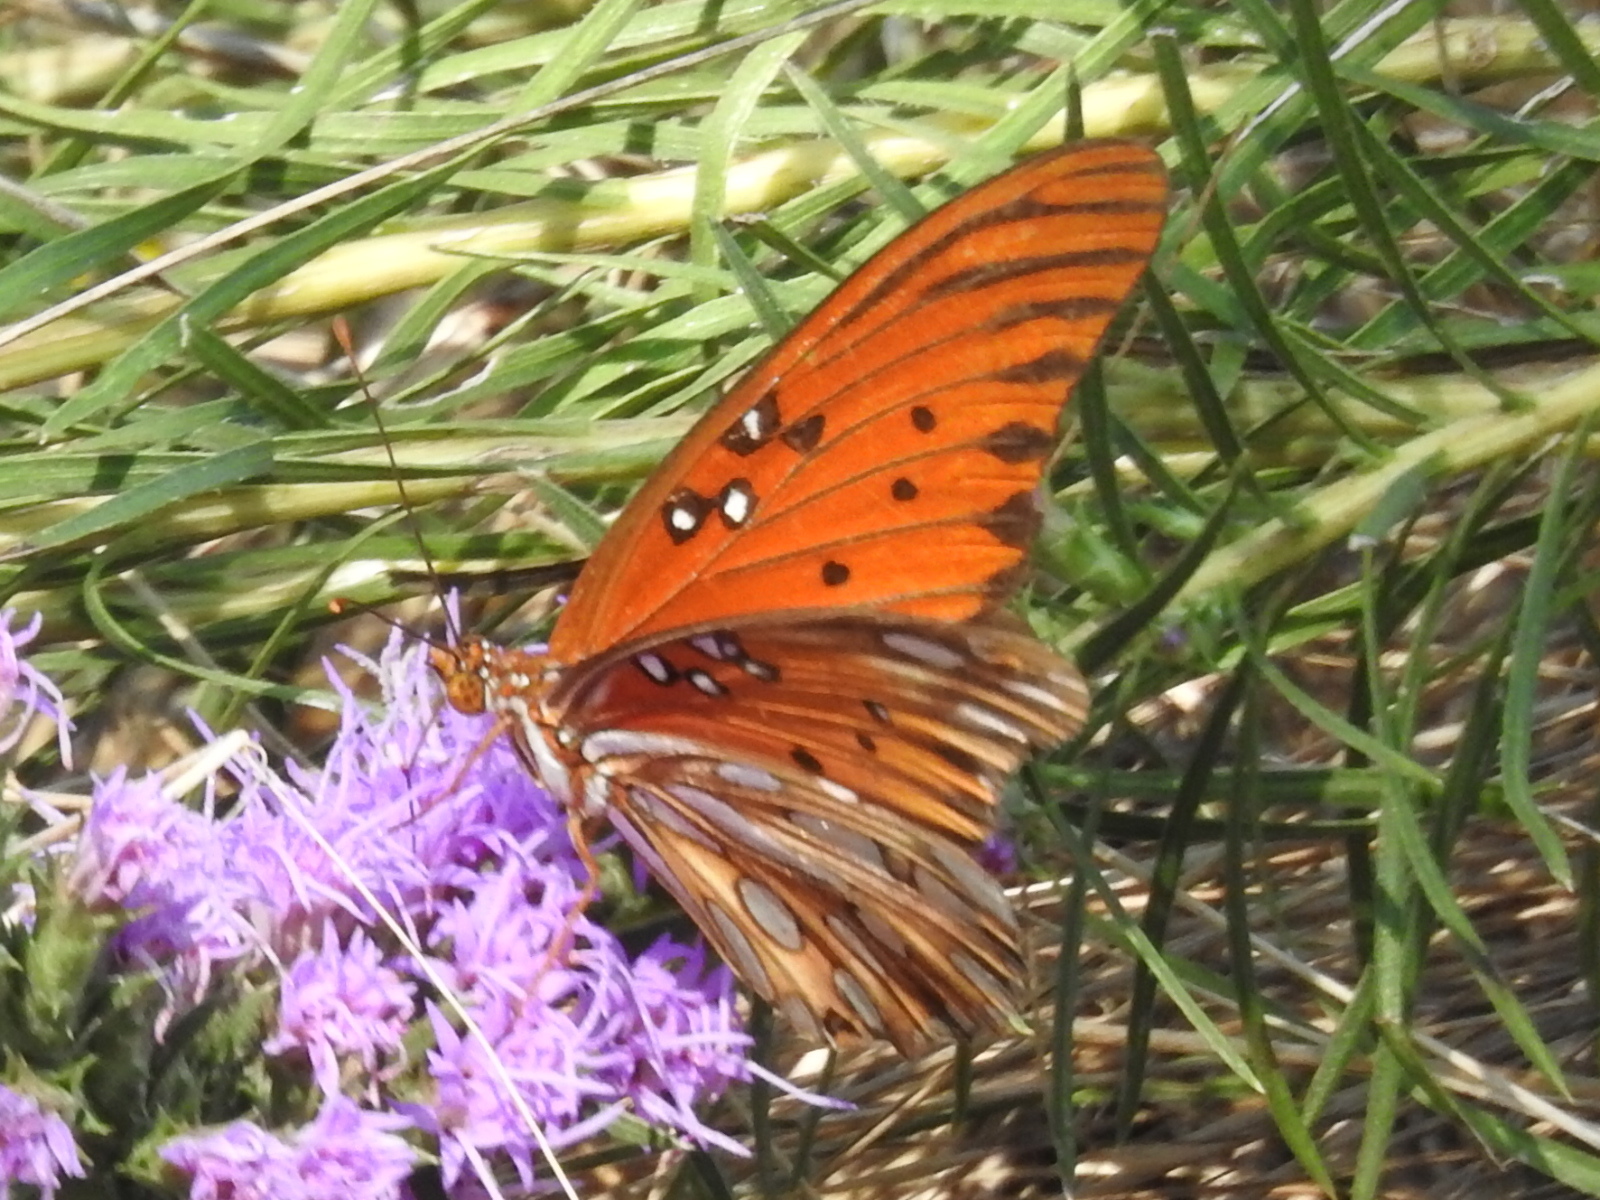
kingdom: Animalia
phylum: Arthropoda
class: Insecta
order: Lepidoptera
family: Nymphalidae
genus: Dione
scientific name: Dione vanillae
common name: Gulf fritillary
